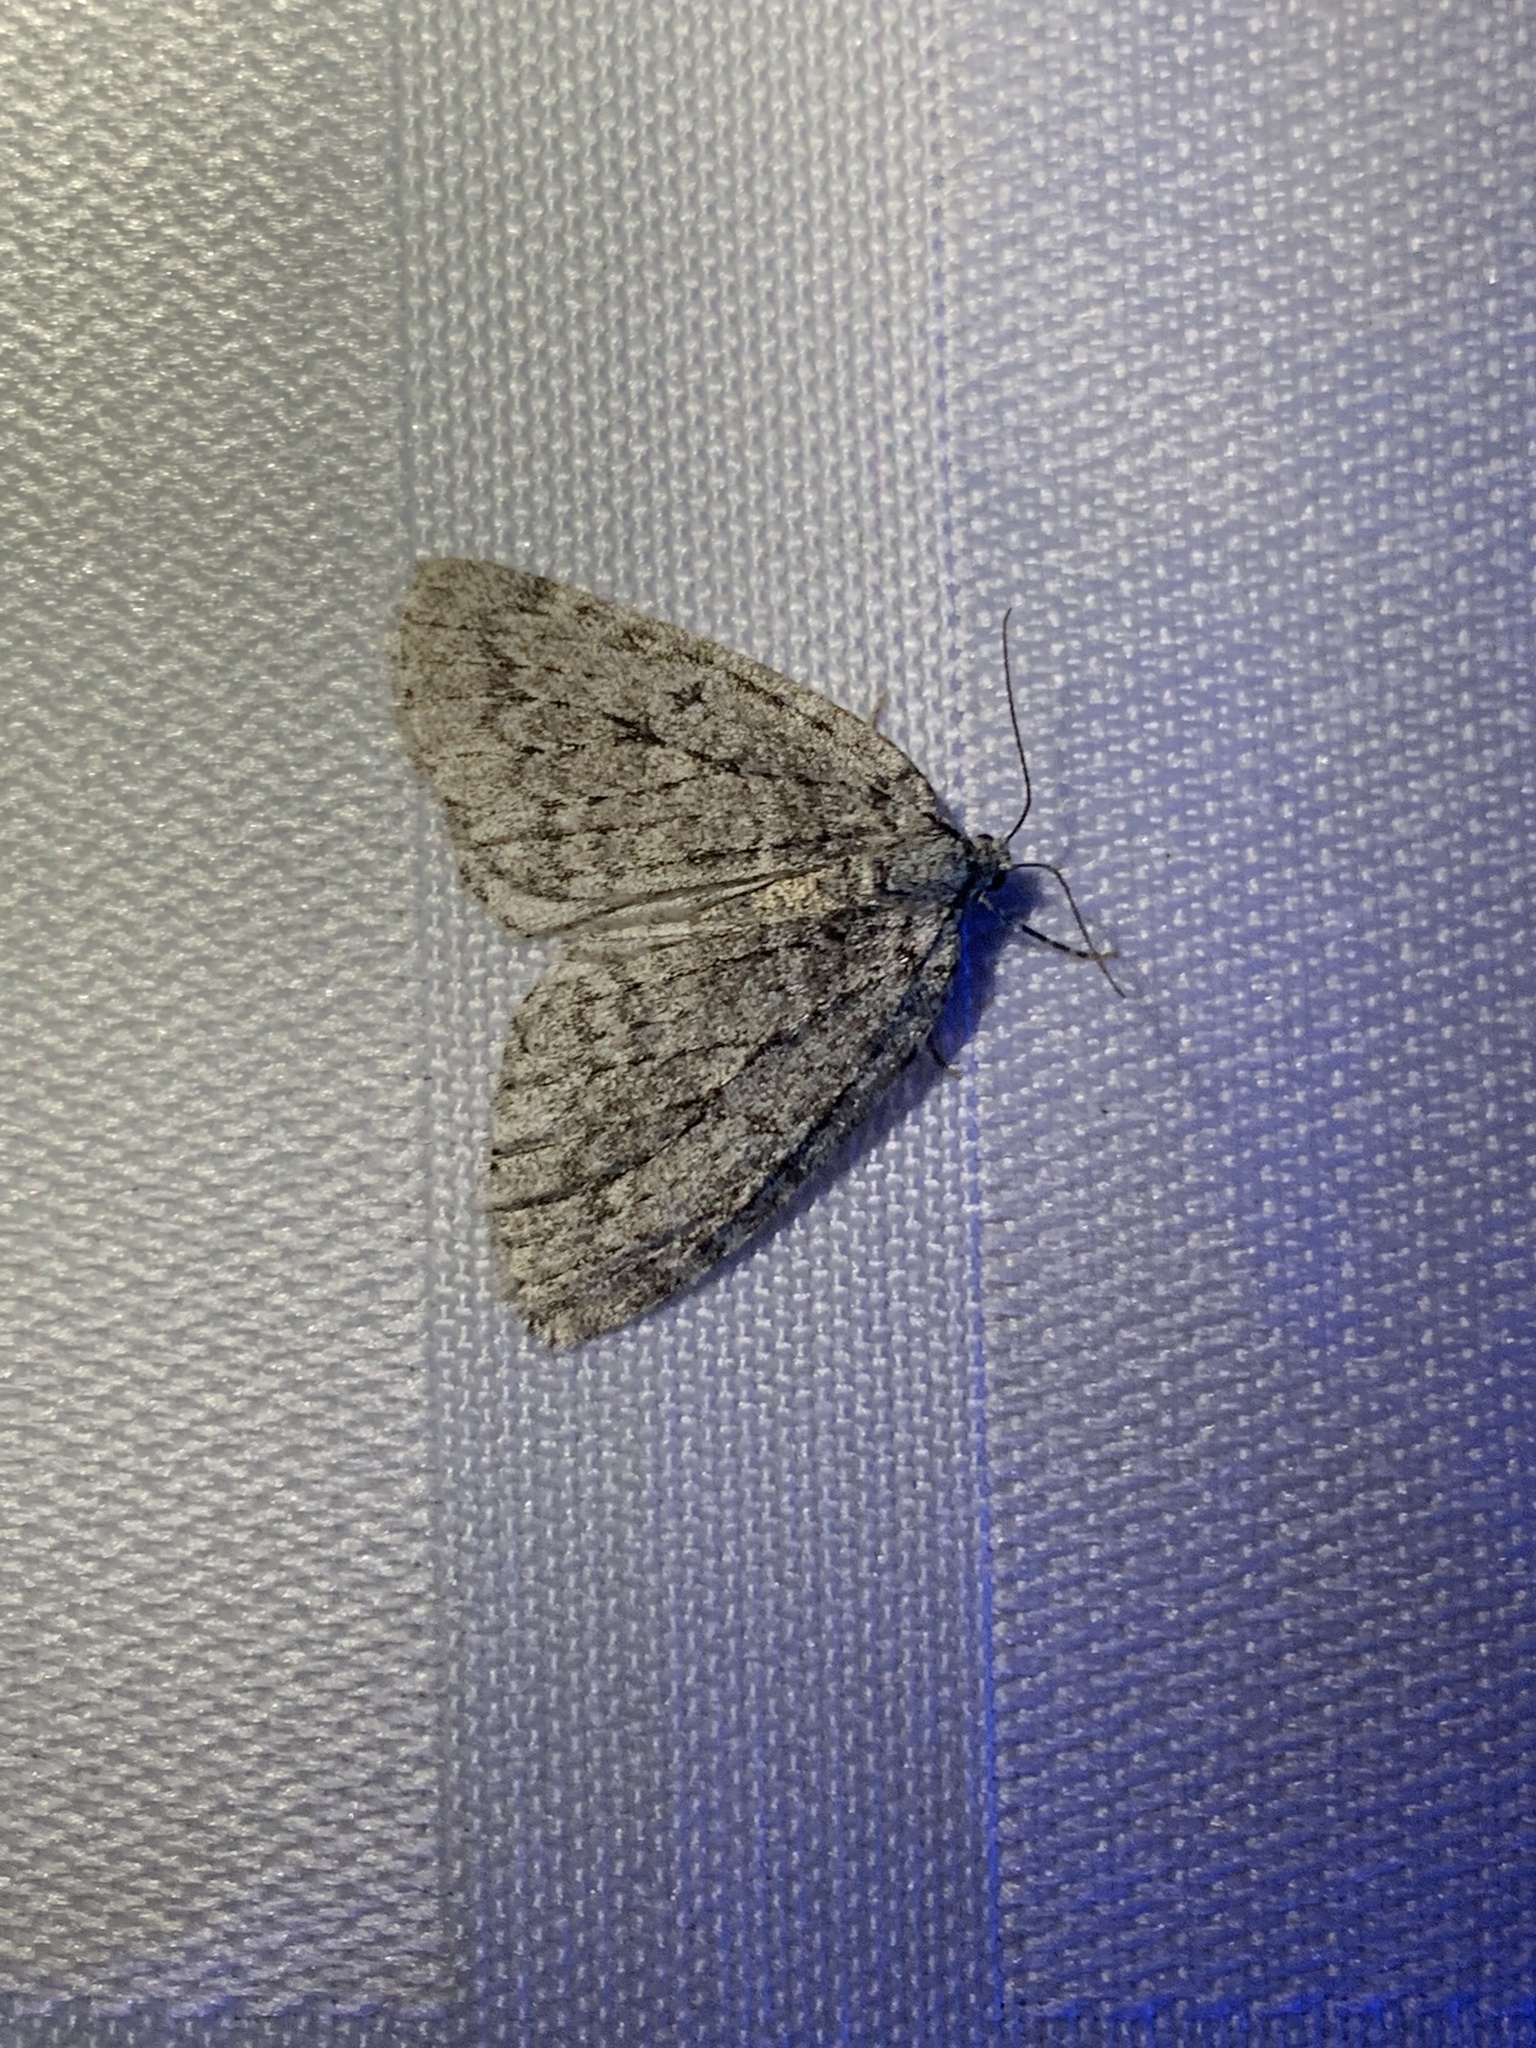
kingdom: Animalia
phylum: Arthropoda
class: Insecta
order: Lepidoptera
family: Geometridae
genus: Epirrita
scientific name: Epirrita autumnata
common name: Autumnal moth
